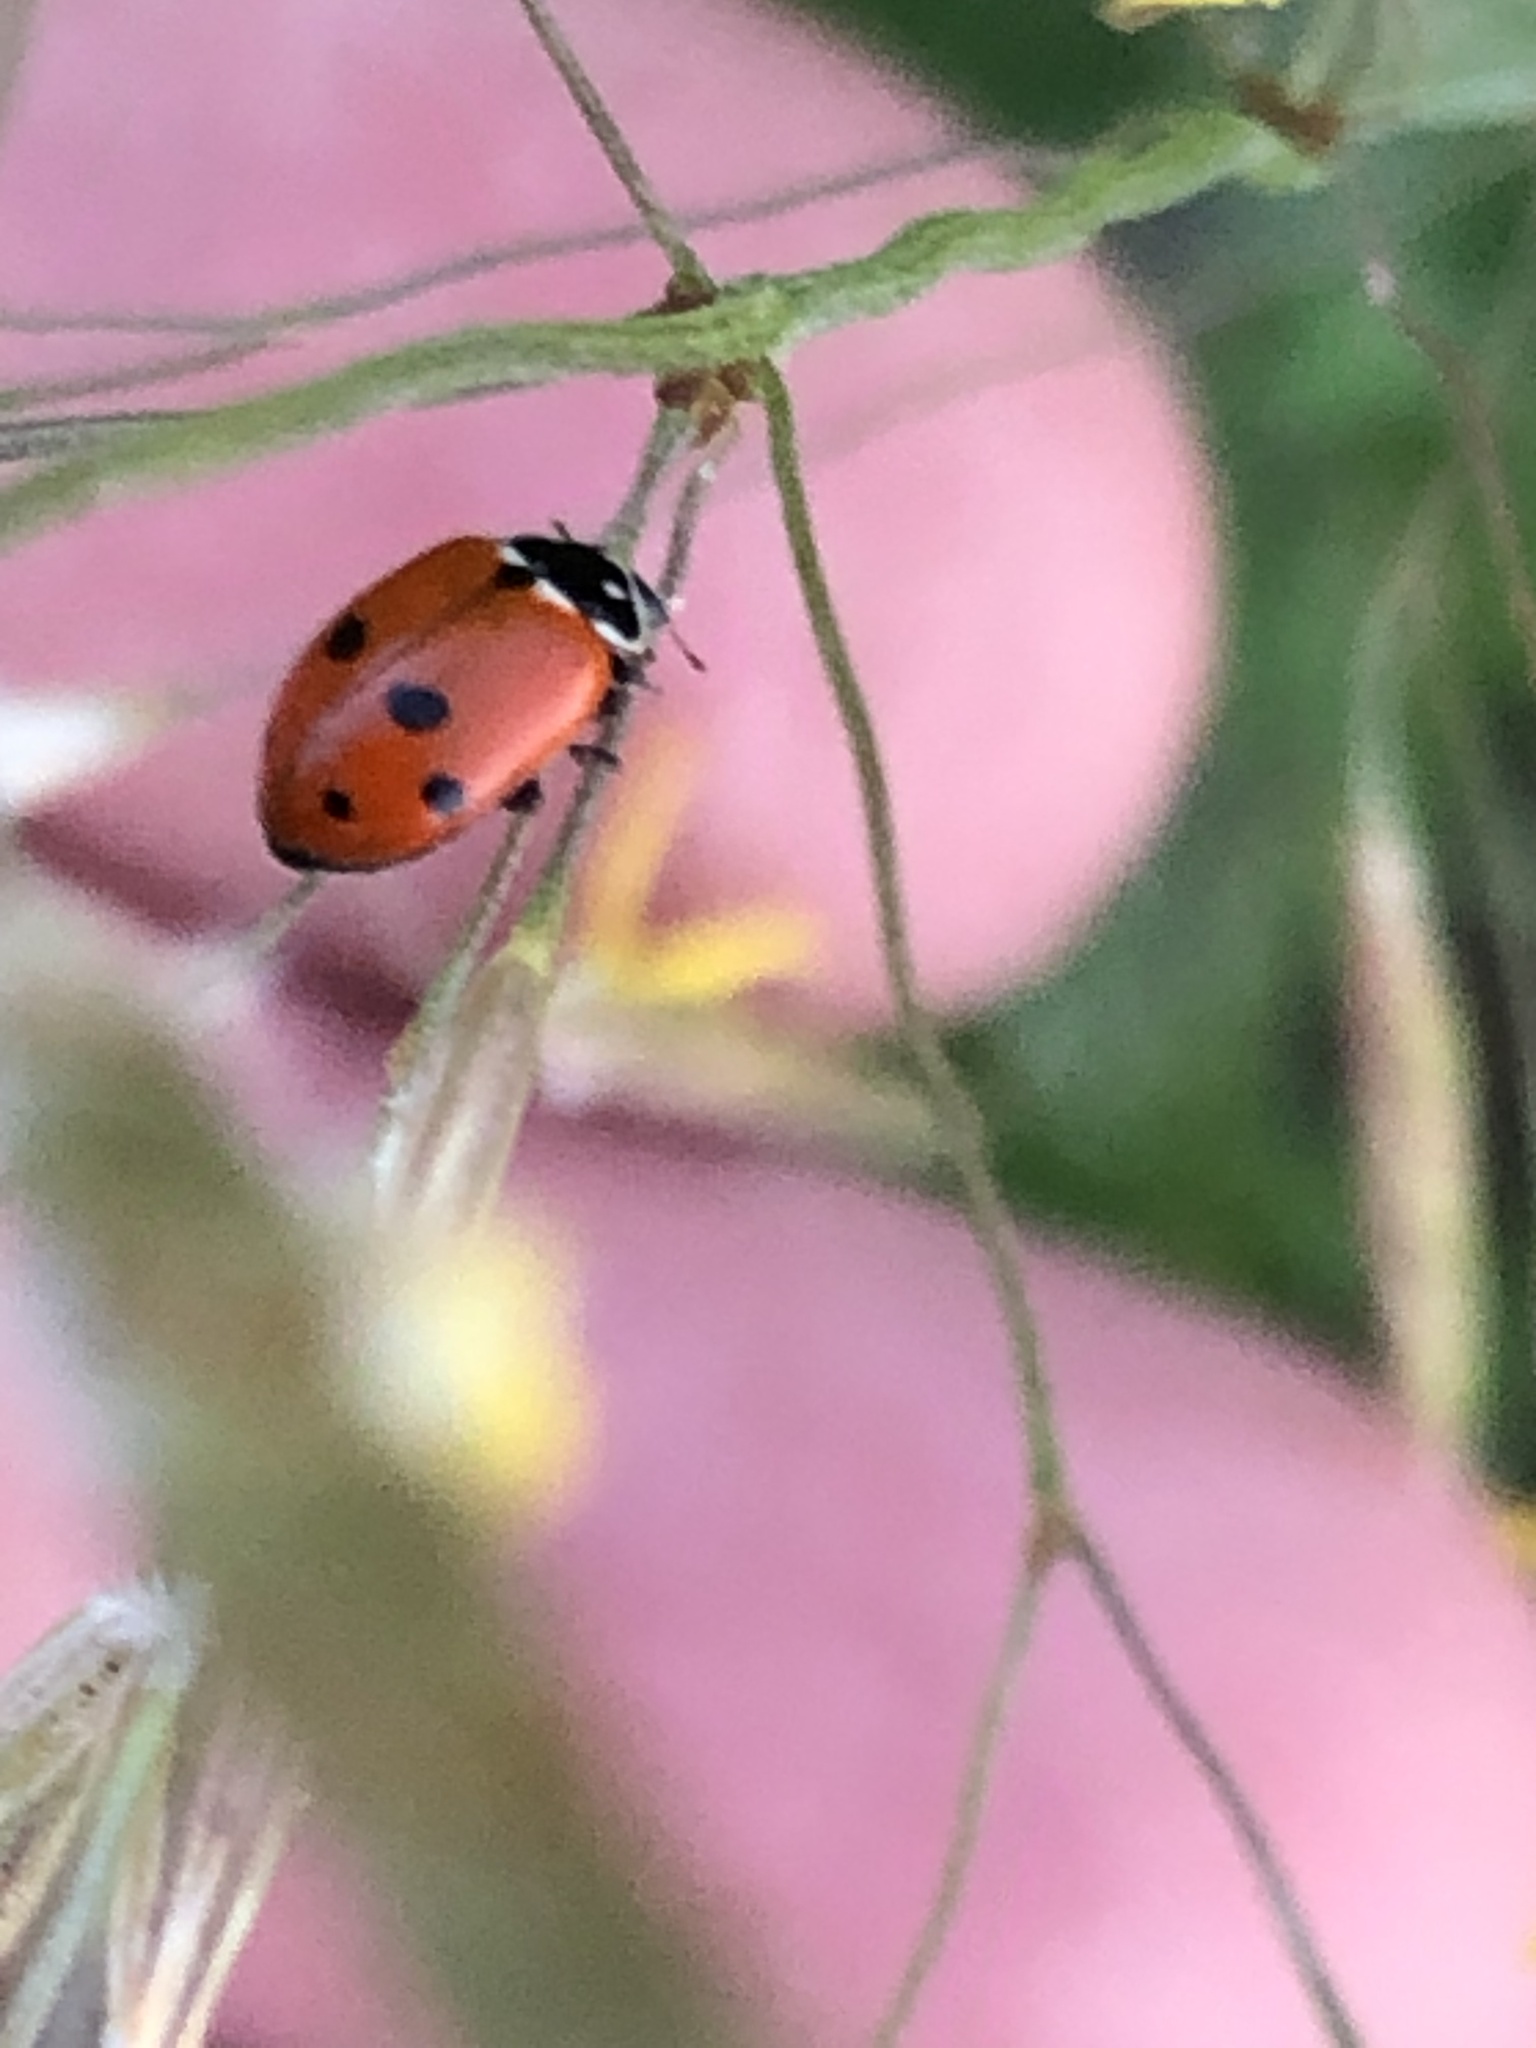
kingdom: Animalia
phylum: Arthropoda
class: Insecta
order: Coleoptera
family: Coccinellidae
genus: Hippodamia
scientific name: Hippodamia variegata
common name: Ladybird beetle
